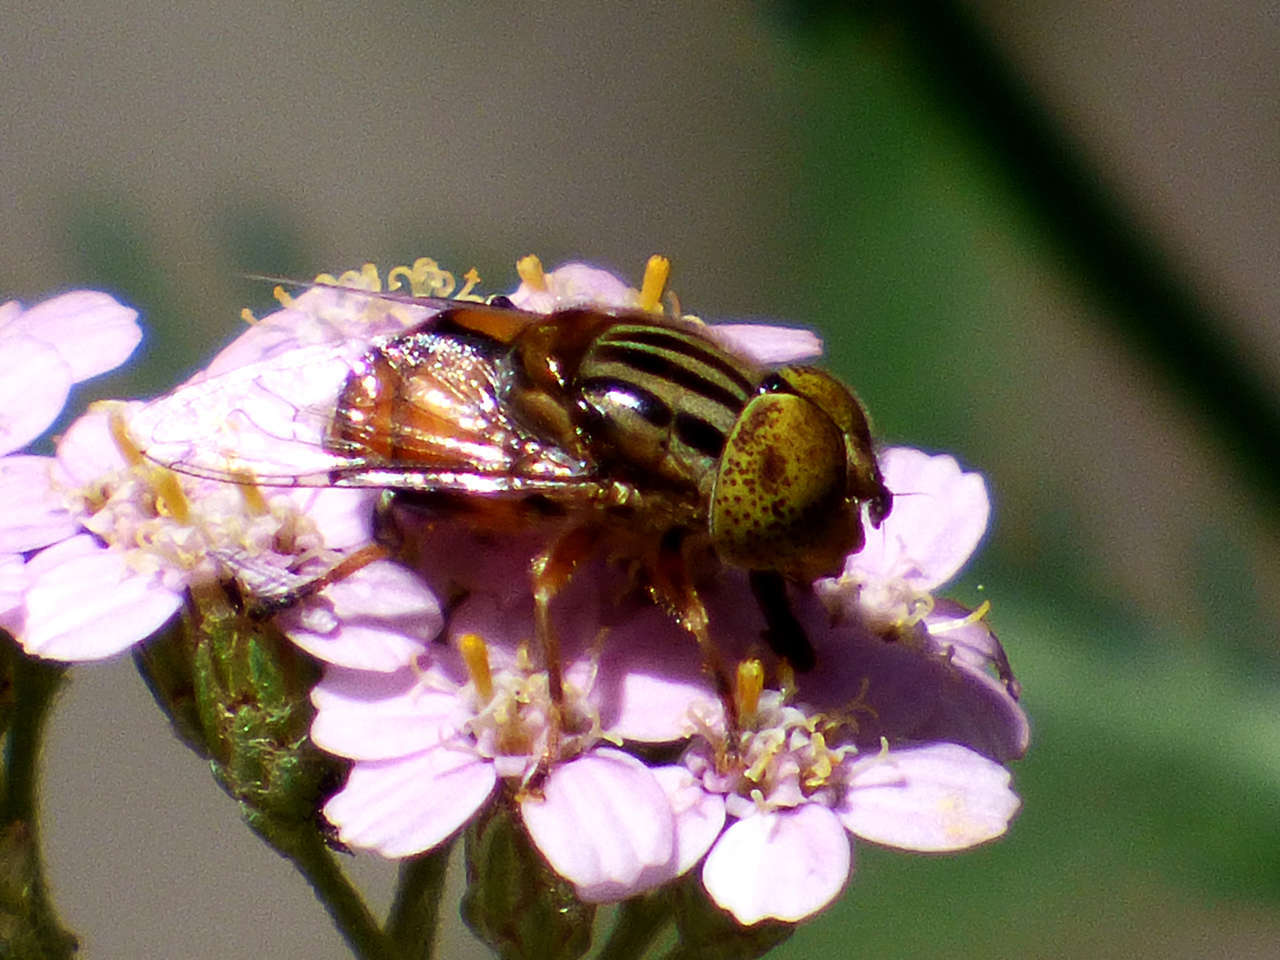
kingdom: Animalia
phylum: Arthropoda
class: Insecta
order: Diptera
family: Syrphidae
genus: Eristalinus
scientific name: Eristalinus punctulatus
